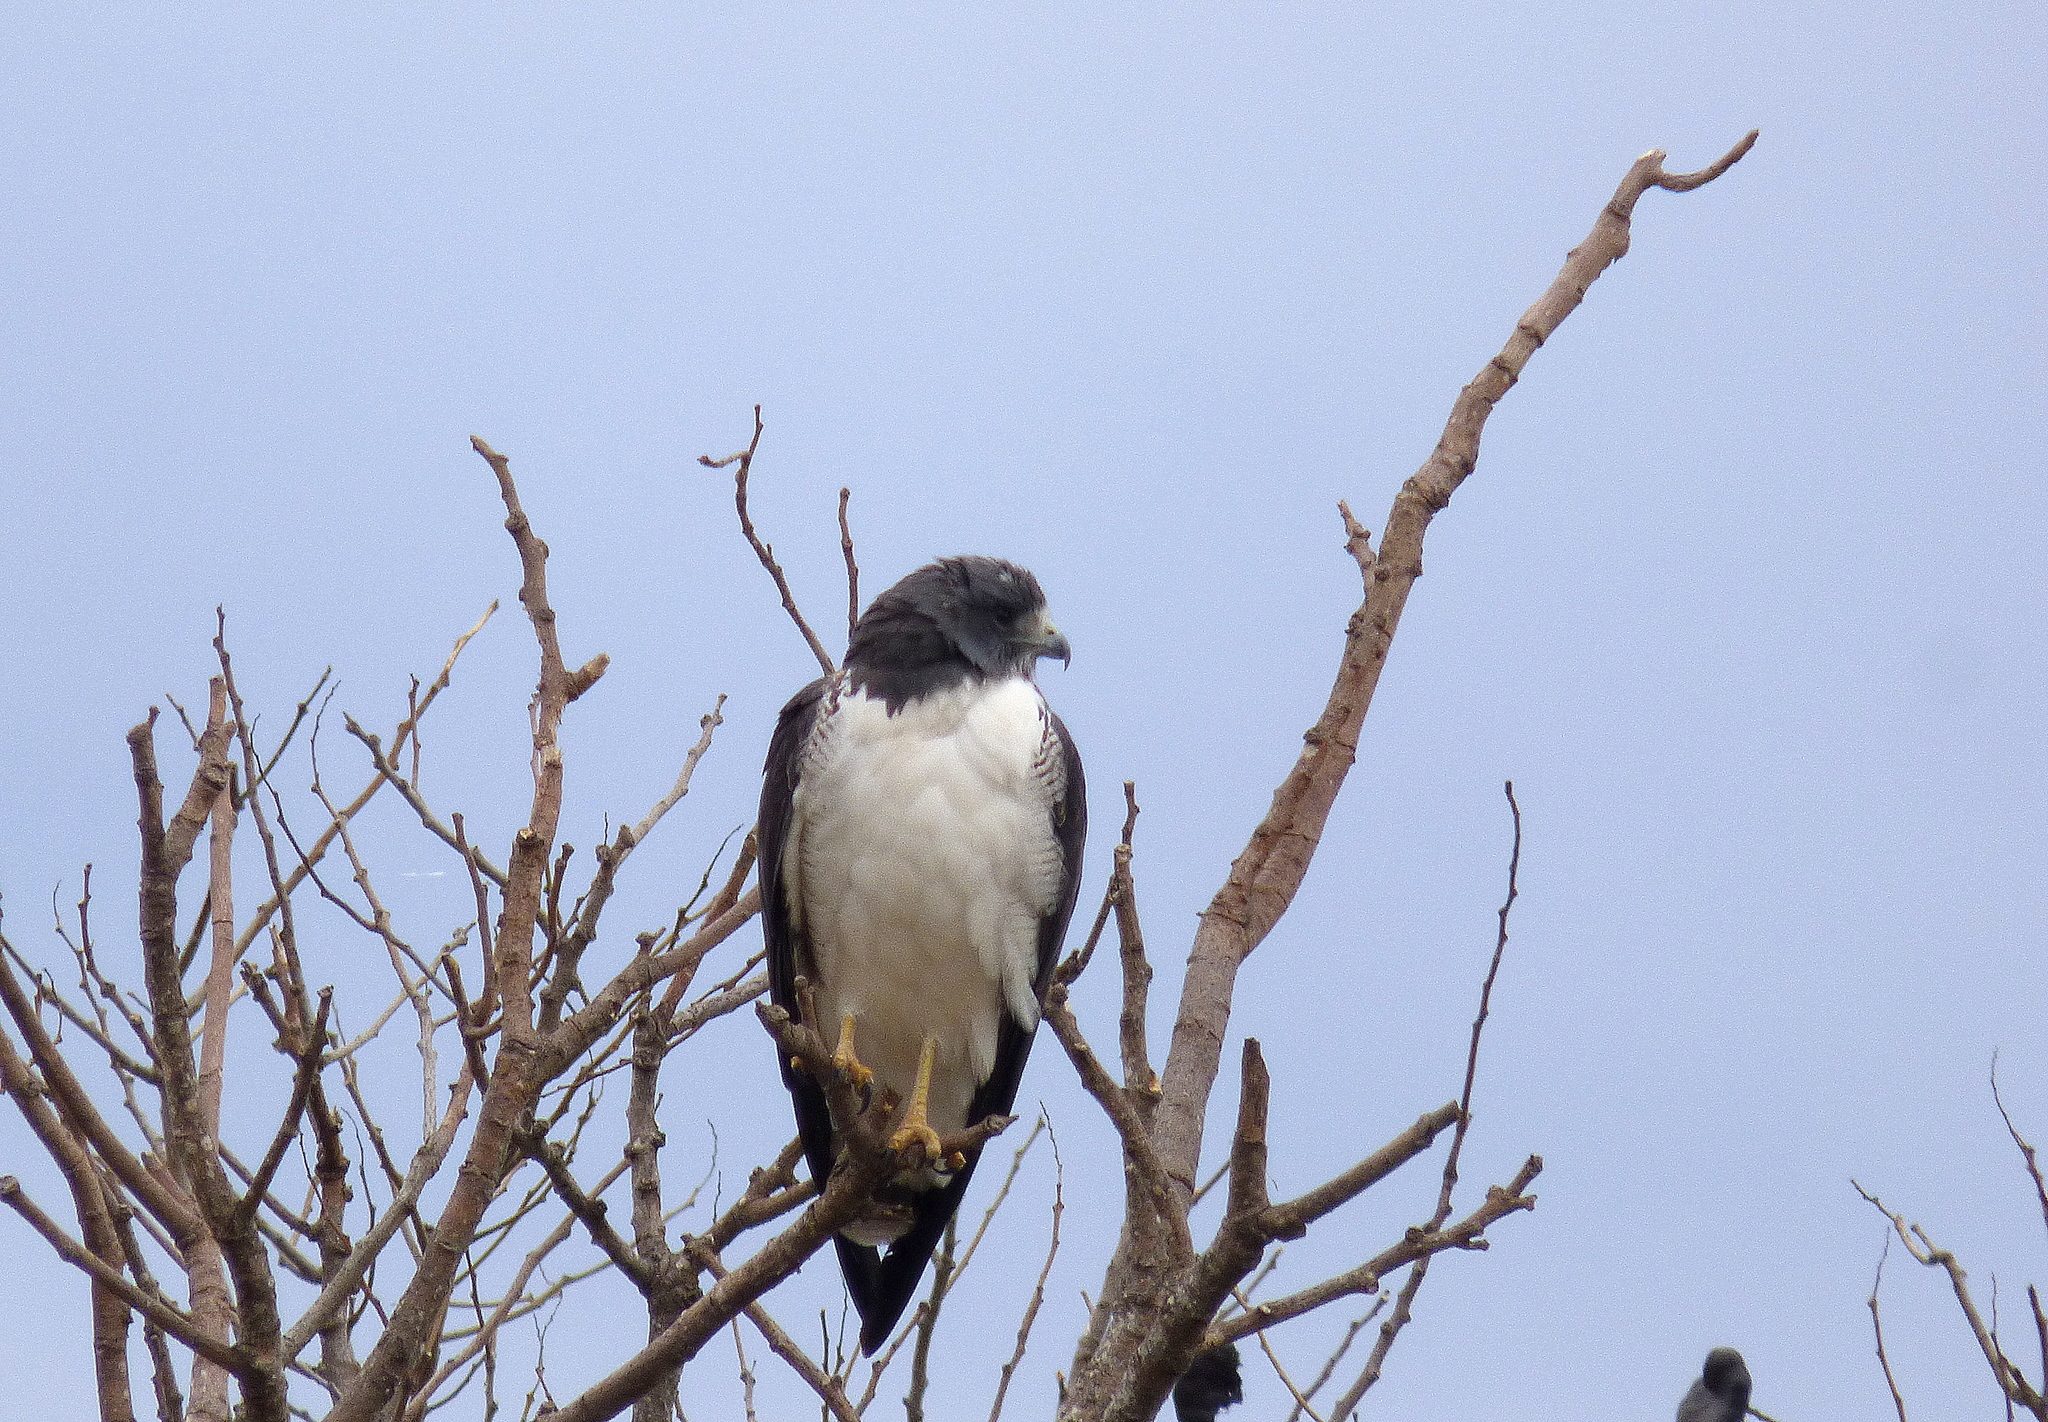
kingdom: Animalia
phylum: Chordata
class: Aves
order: Accipitriformes
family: Accipitridae
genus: Buteo
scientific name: Buteo albicaudatus
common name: White-tailed hawk
